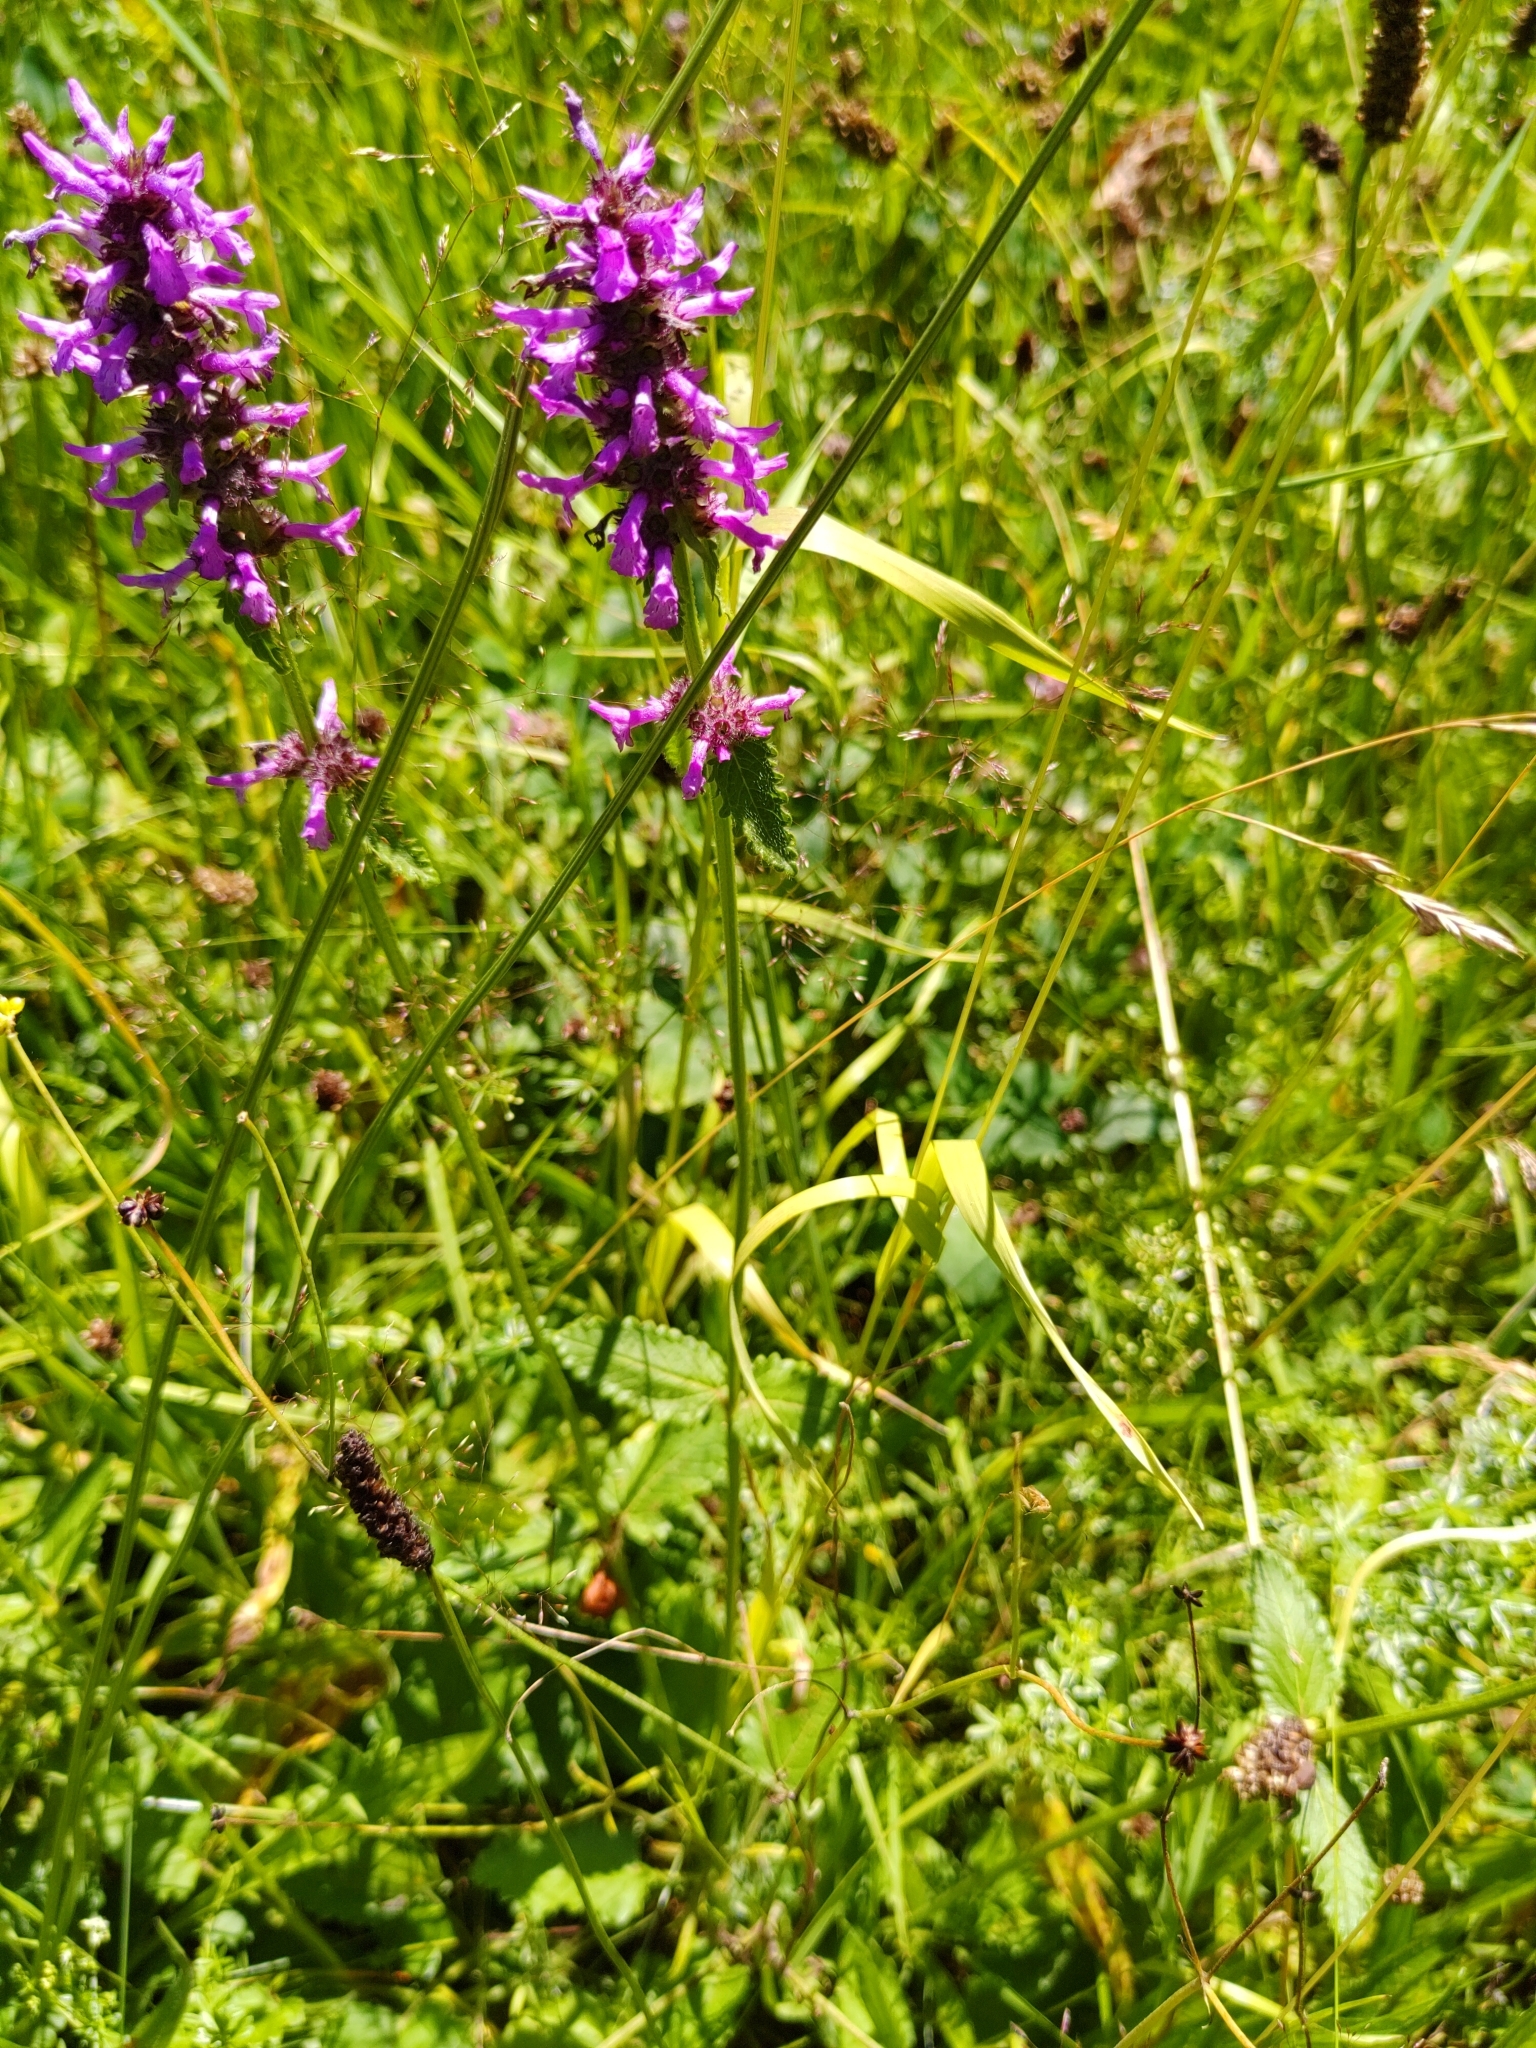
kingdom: Plantae
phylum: Tracheophyta
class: Magnoliopsida
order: Lamiales
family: Lamiaceae
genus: Betonica
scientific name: Betonica officinalis
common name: Bishop's-wort
